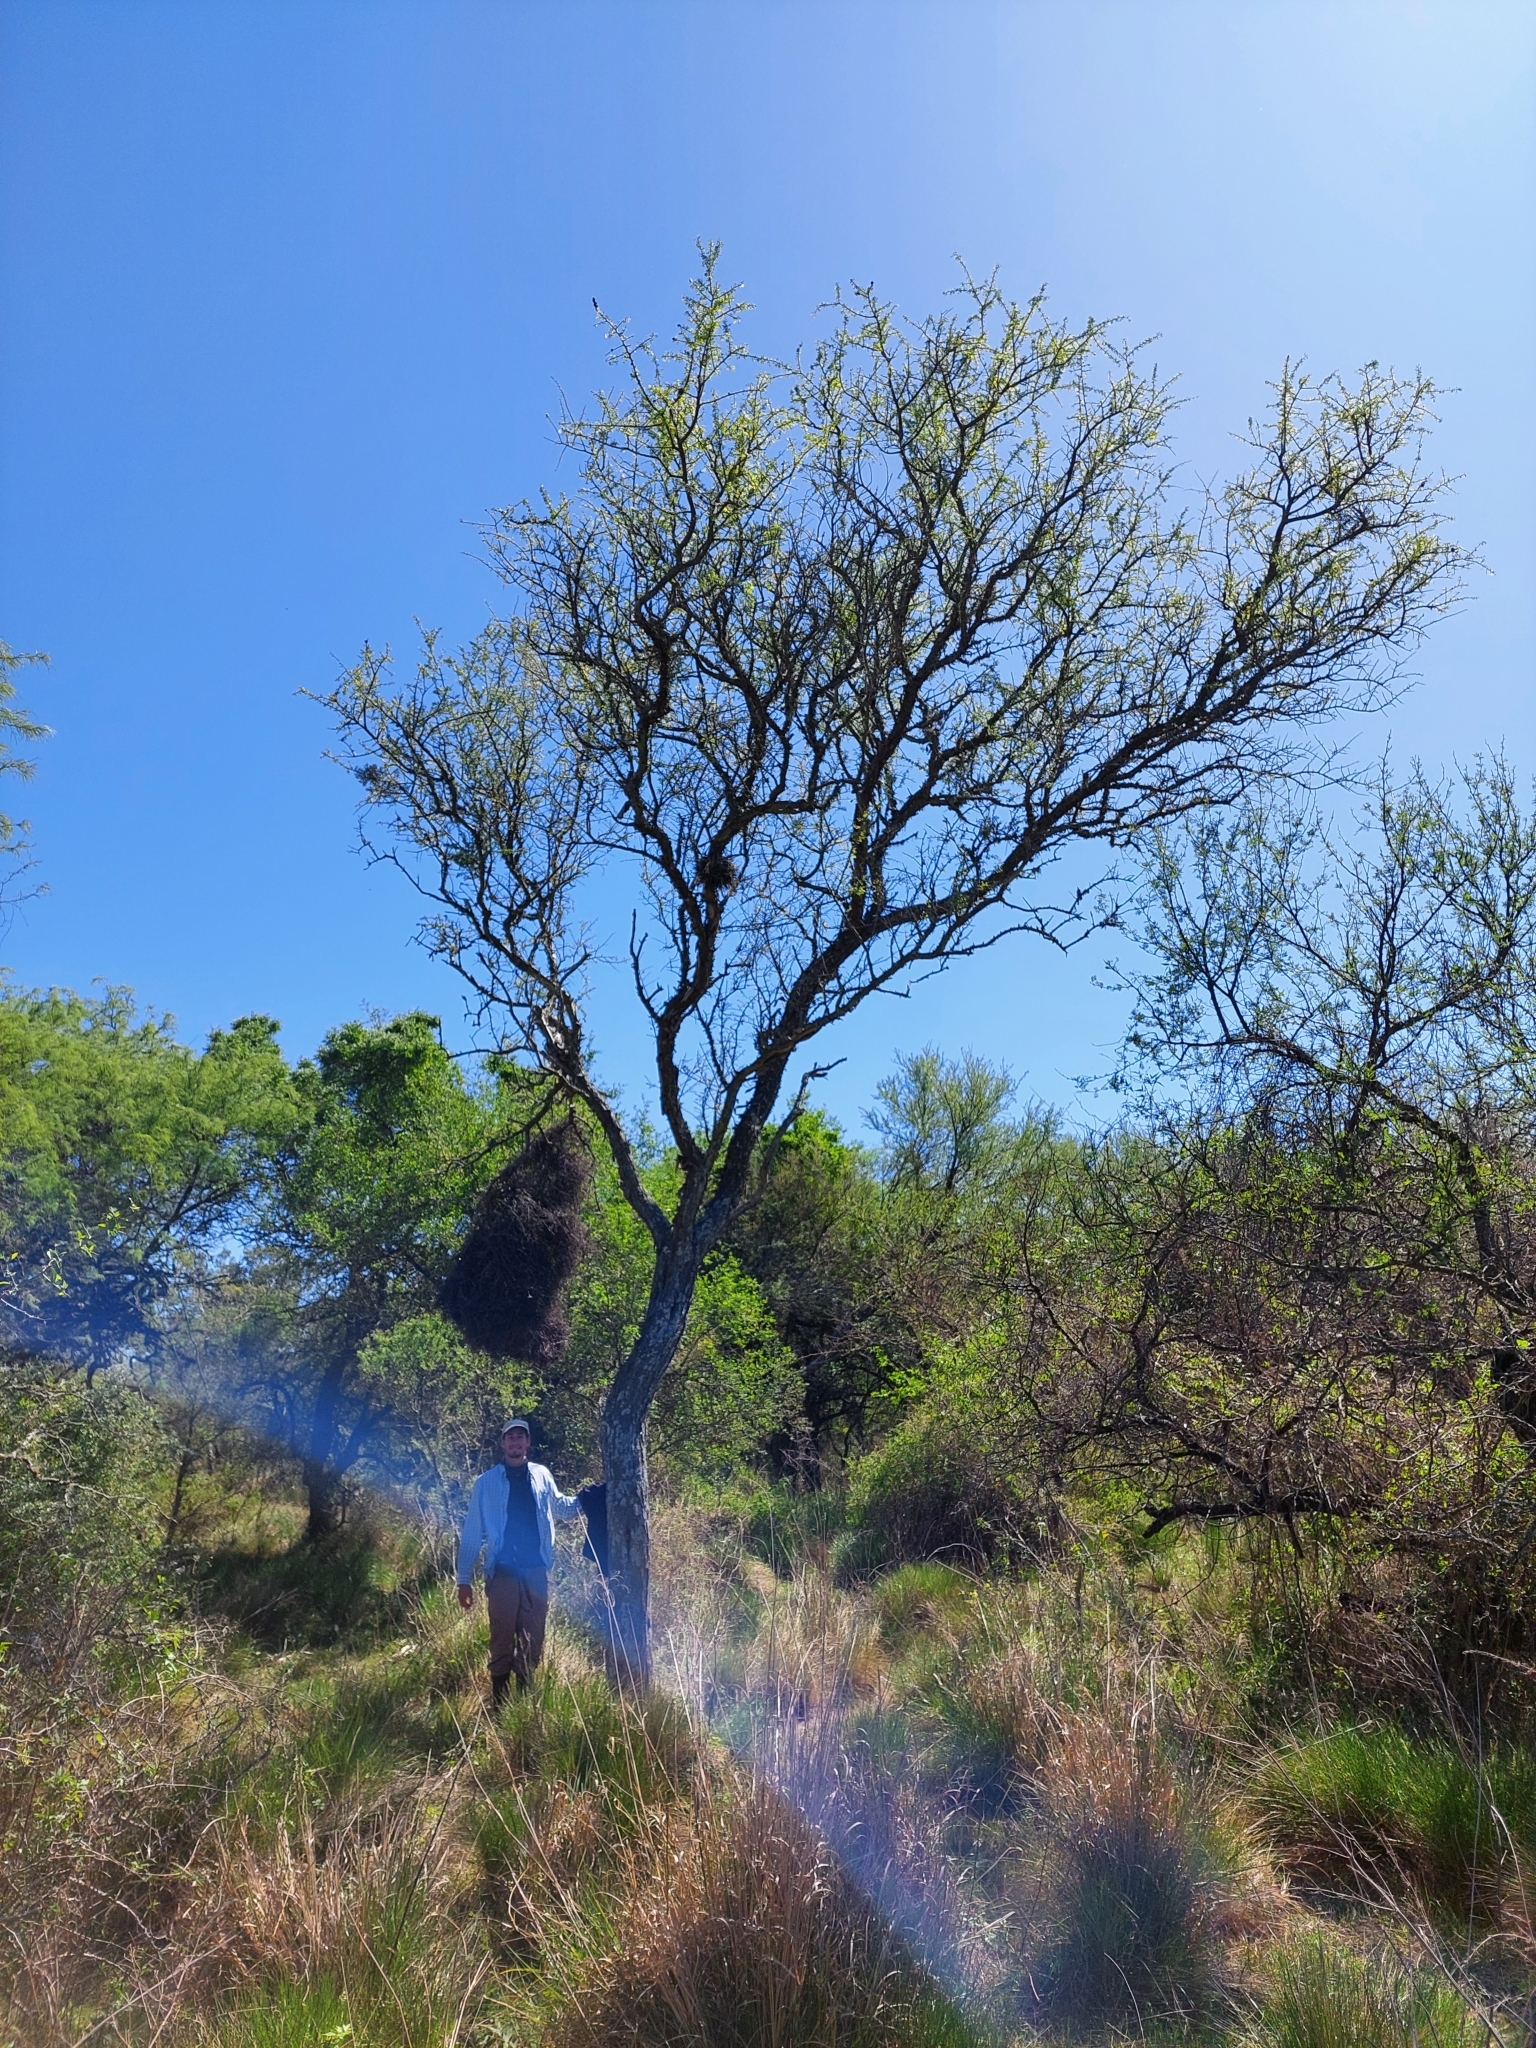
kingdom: Plantae
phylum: Tracheophyta
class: Magnoliopsida
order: Fabales
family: Fabaceae
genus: Geoffroea
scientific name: Geoffroea decorticans
